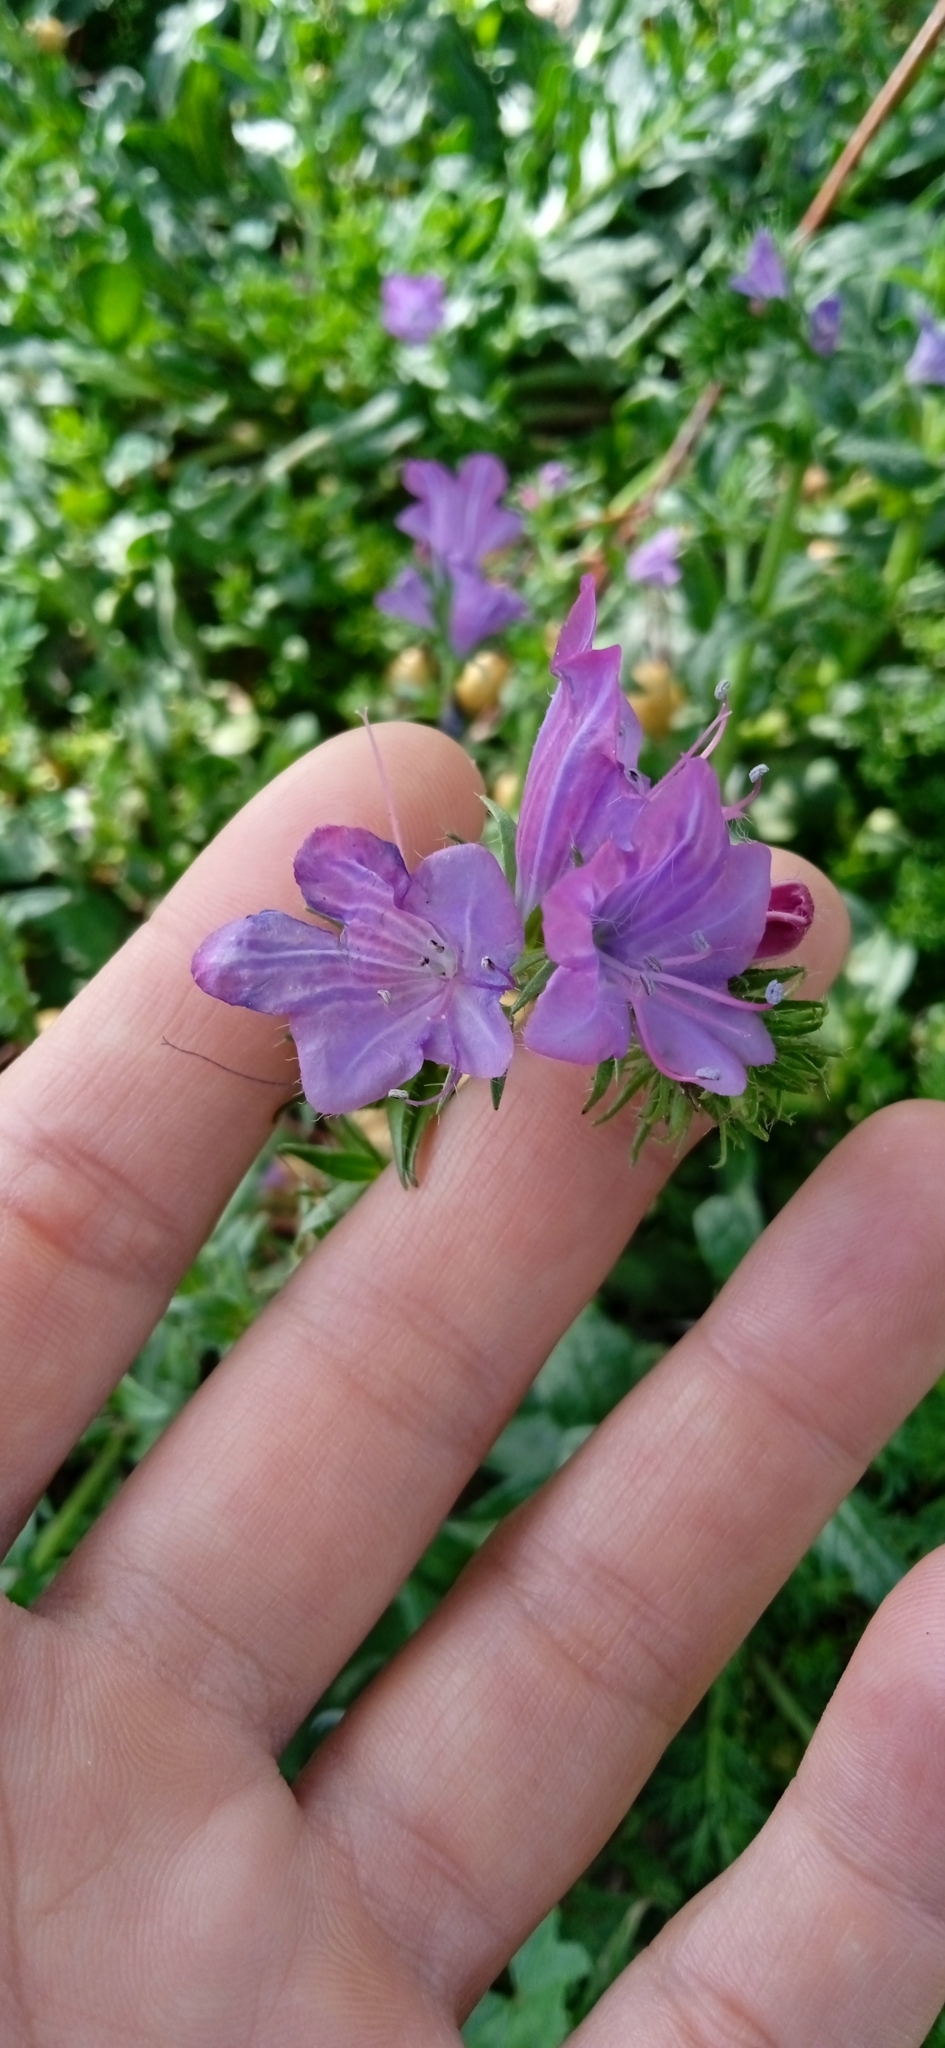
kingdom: Plantae
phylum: Tracheophyta
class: Magnoliopsida
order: Boraginales
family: Boraginaceae
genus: Echium
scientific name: Echium plantagineum
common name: Purple viper's-bugloss
